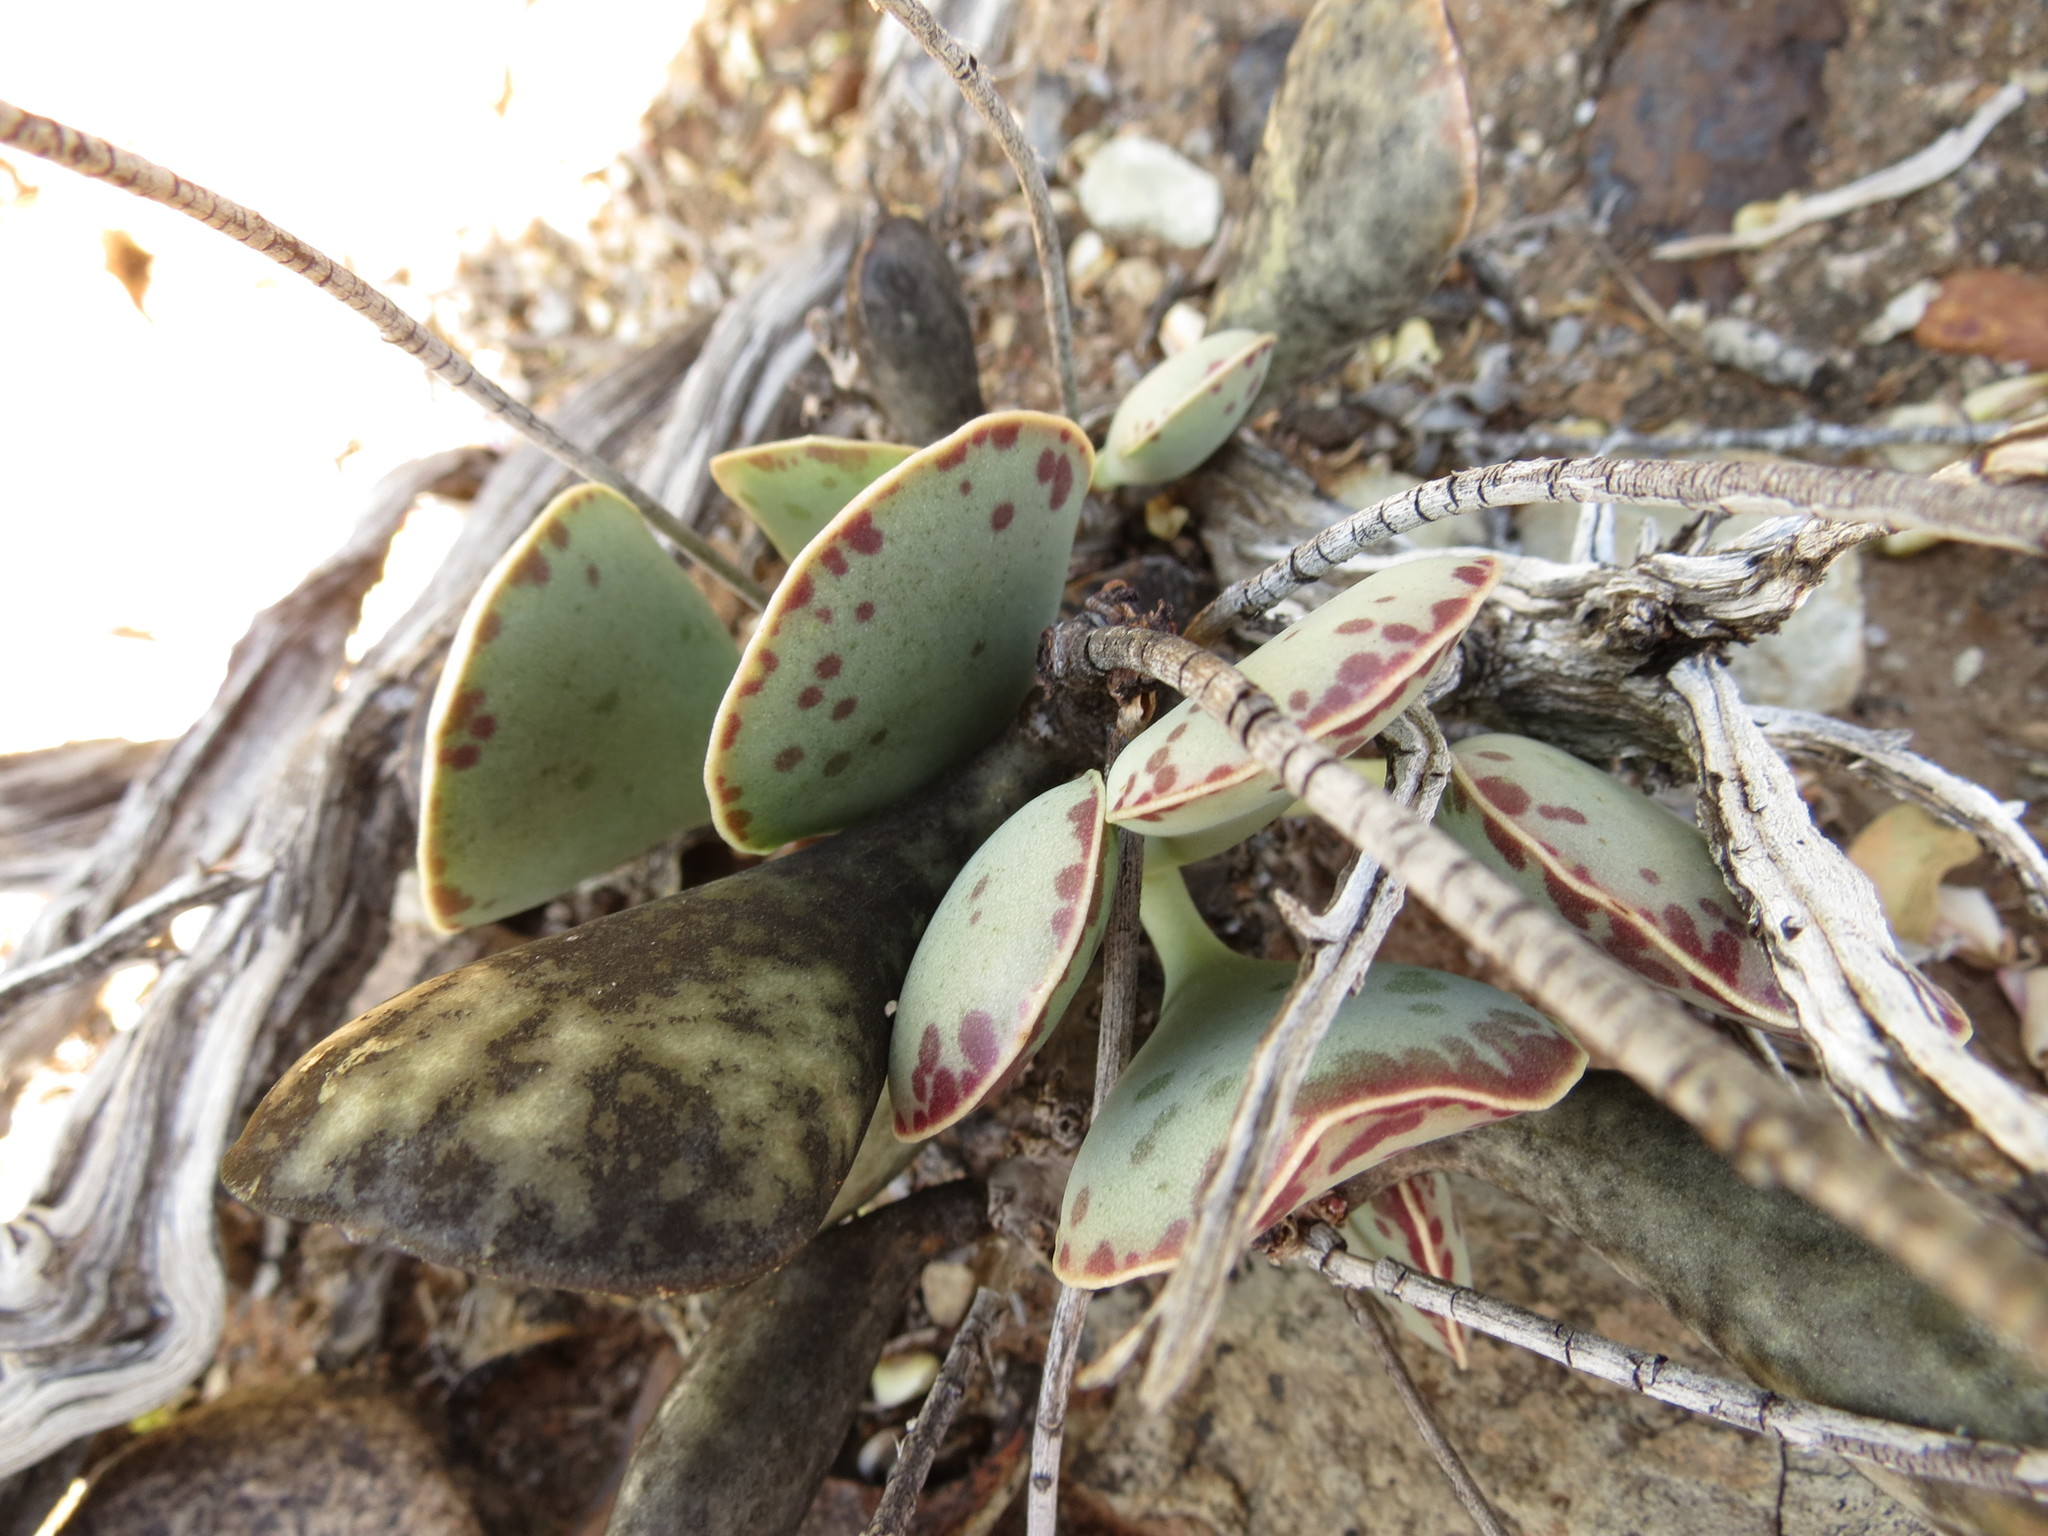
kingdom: Plantae
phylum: Tracheophyta
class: Magnoliopsida
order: Saxifragales
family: Crassulaceae
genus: Adromischus
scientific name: Adromischus triflorus
